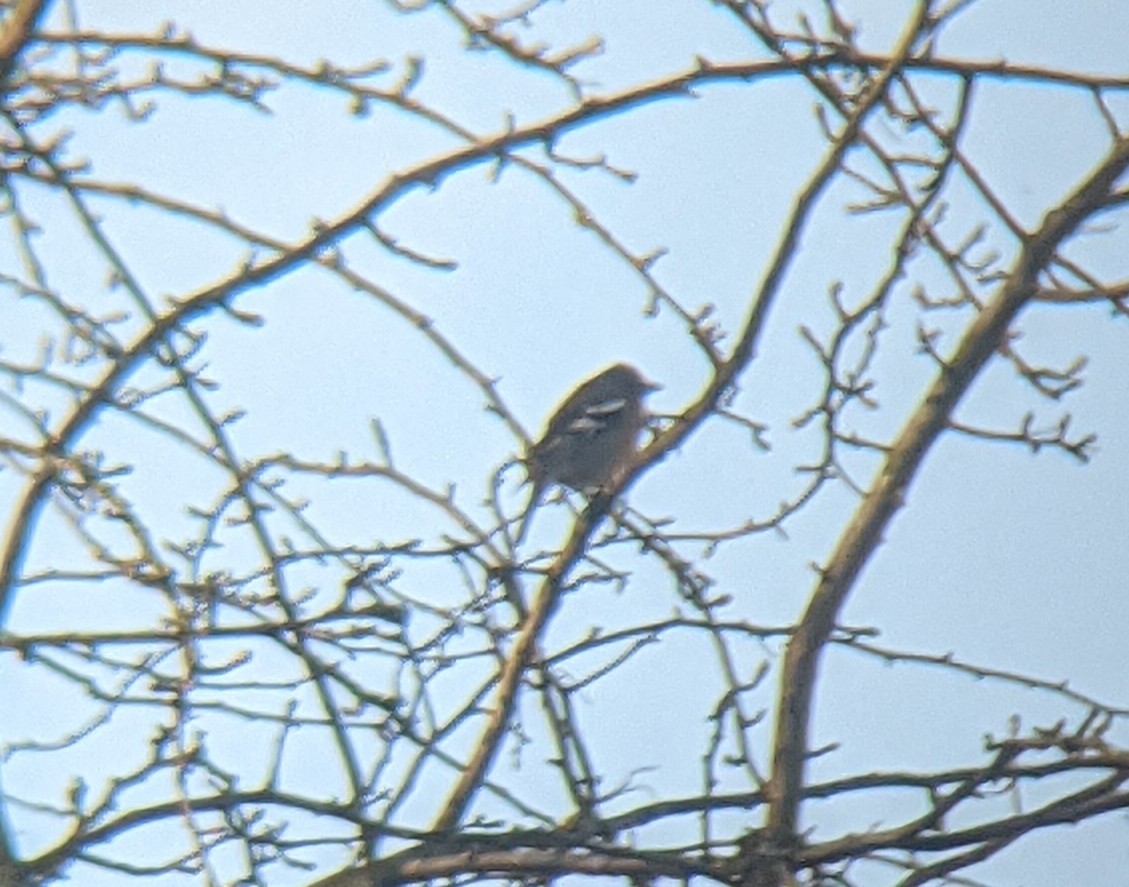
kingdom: Animalia
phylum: Chordata
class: Aves
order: Passeriformes
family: Fringillidae
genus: Fringilla
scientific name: Fringilla coelebs
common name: Common chaffinch
